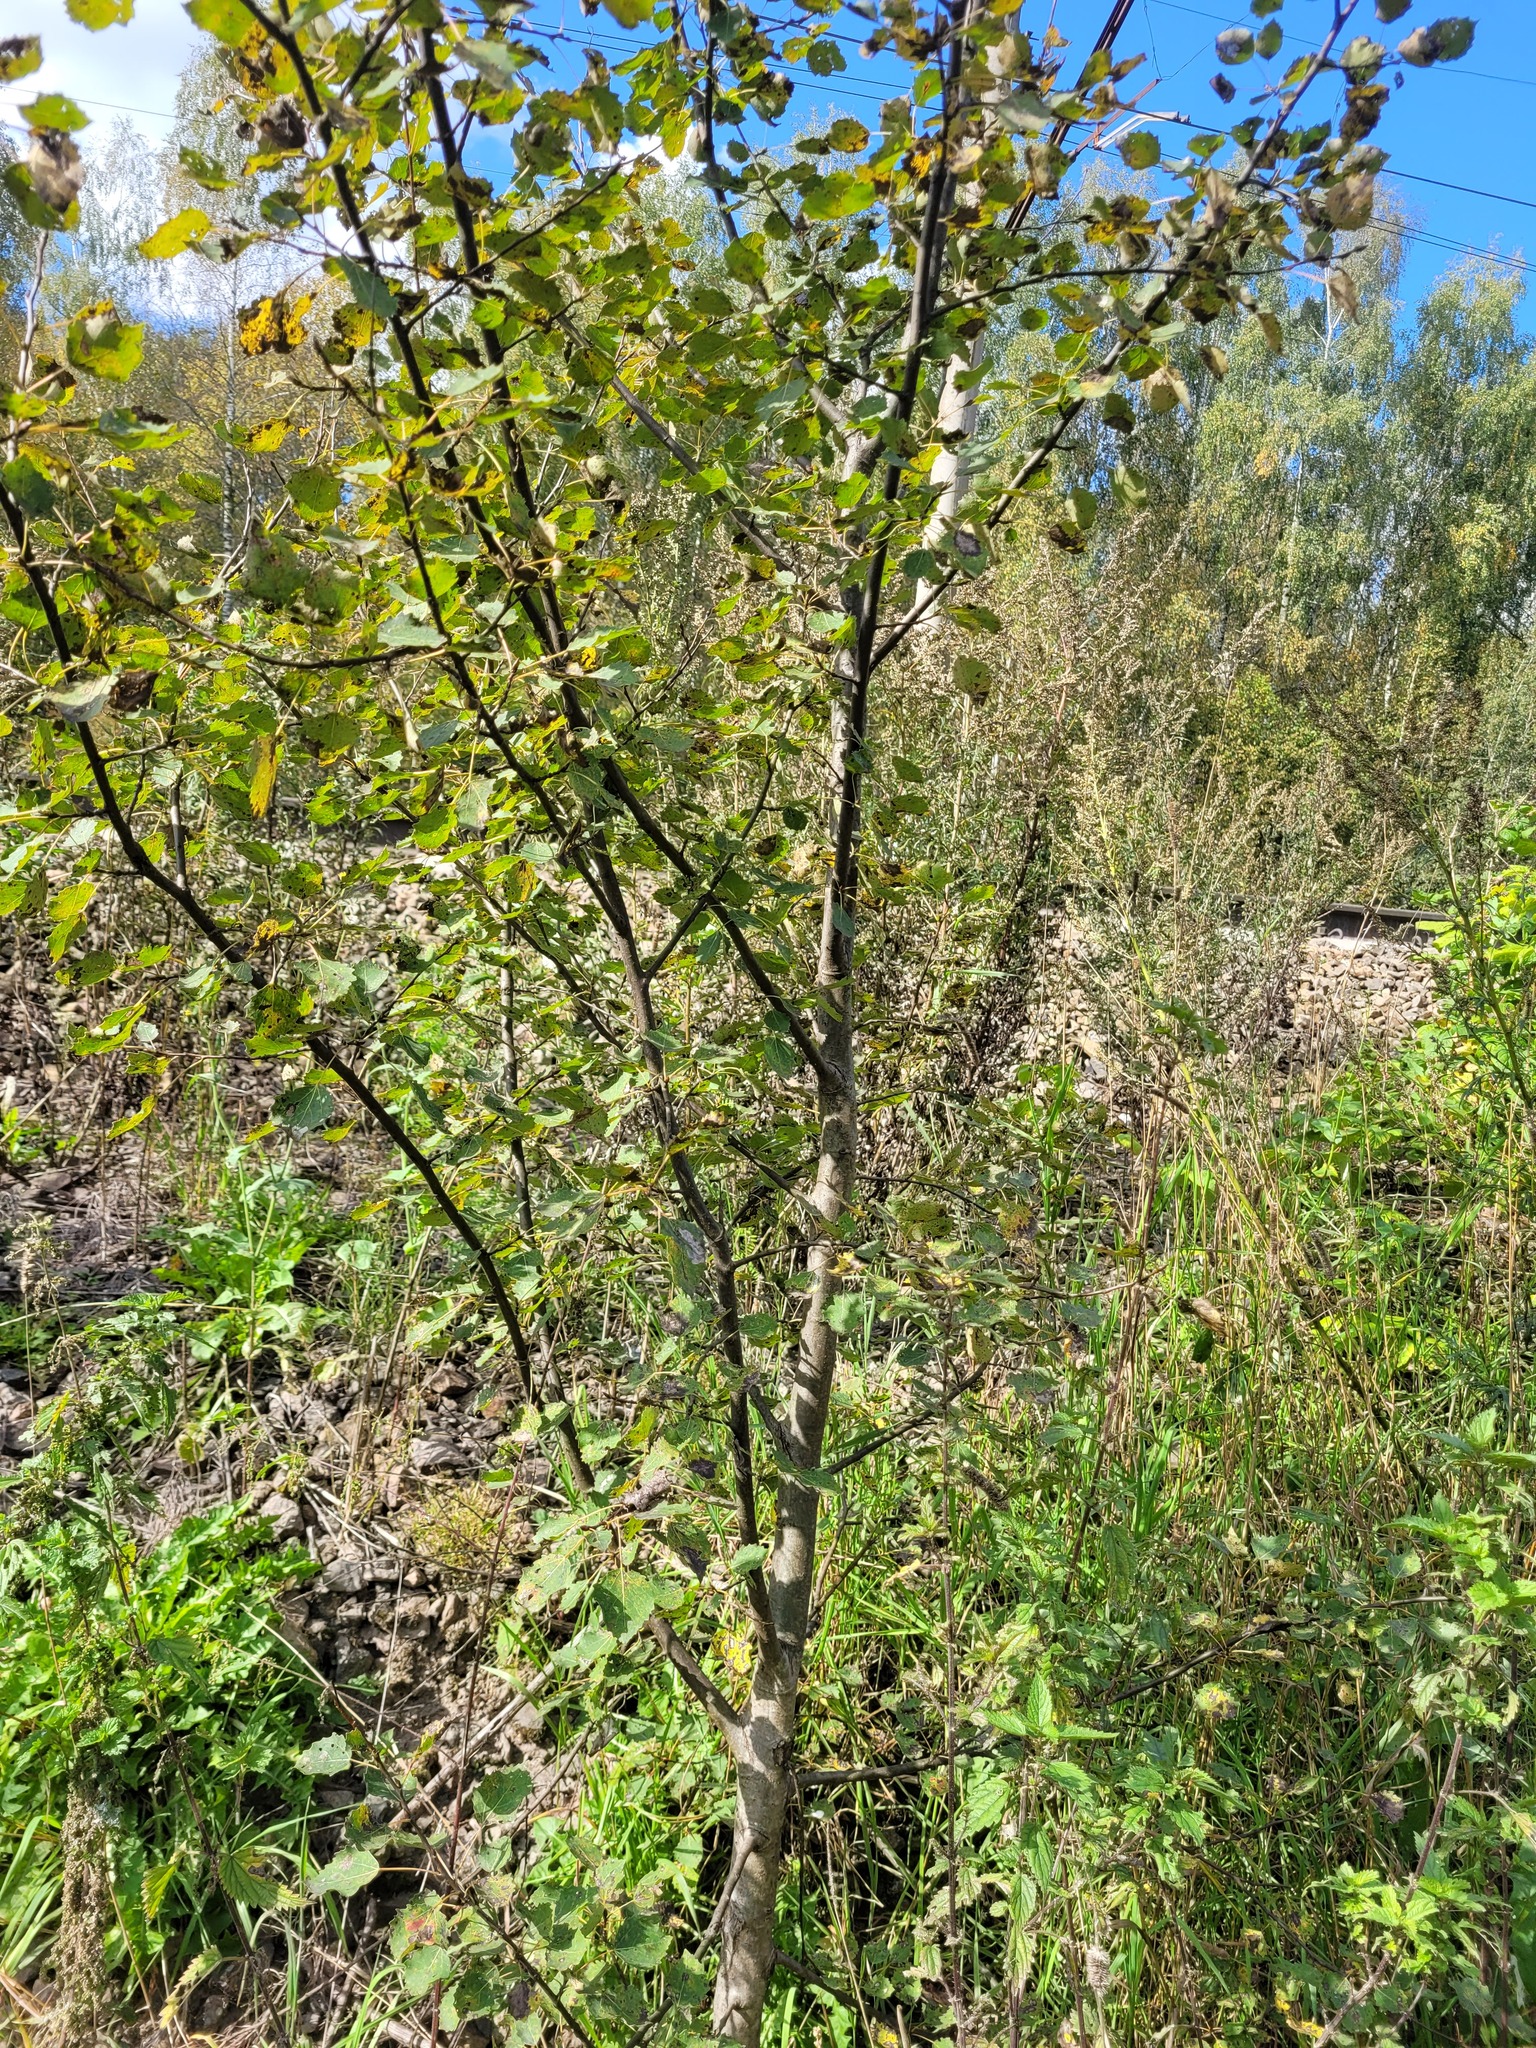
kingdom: Plantae
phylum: Tracheophyta
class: Magnoliopsida
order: Malpighiales
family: Salicaceae
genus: Populus
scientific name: Populus tremula
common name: European aspen
